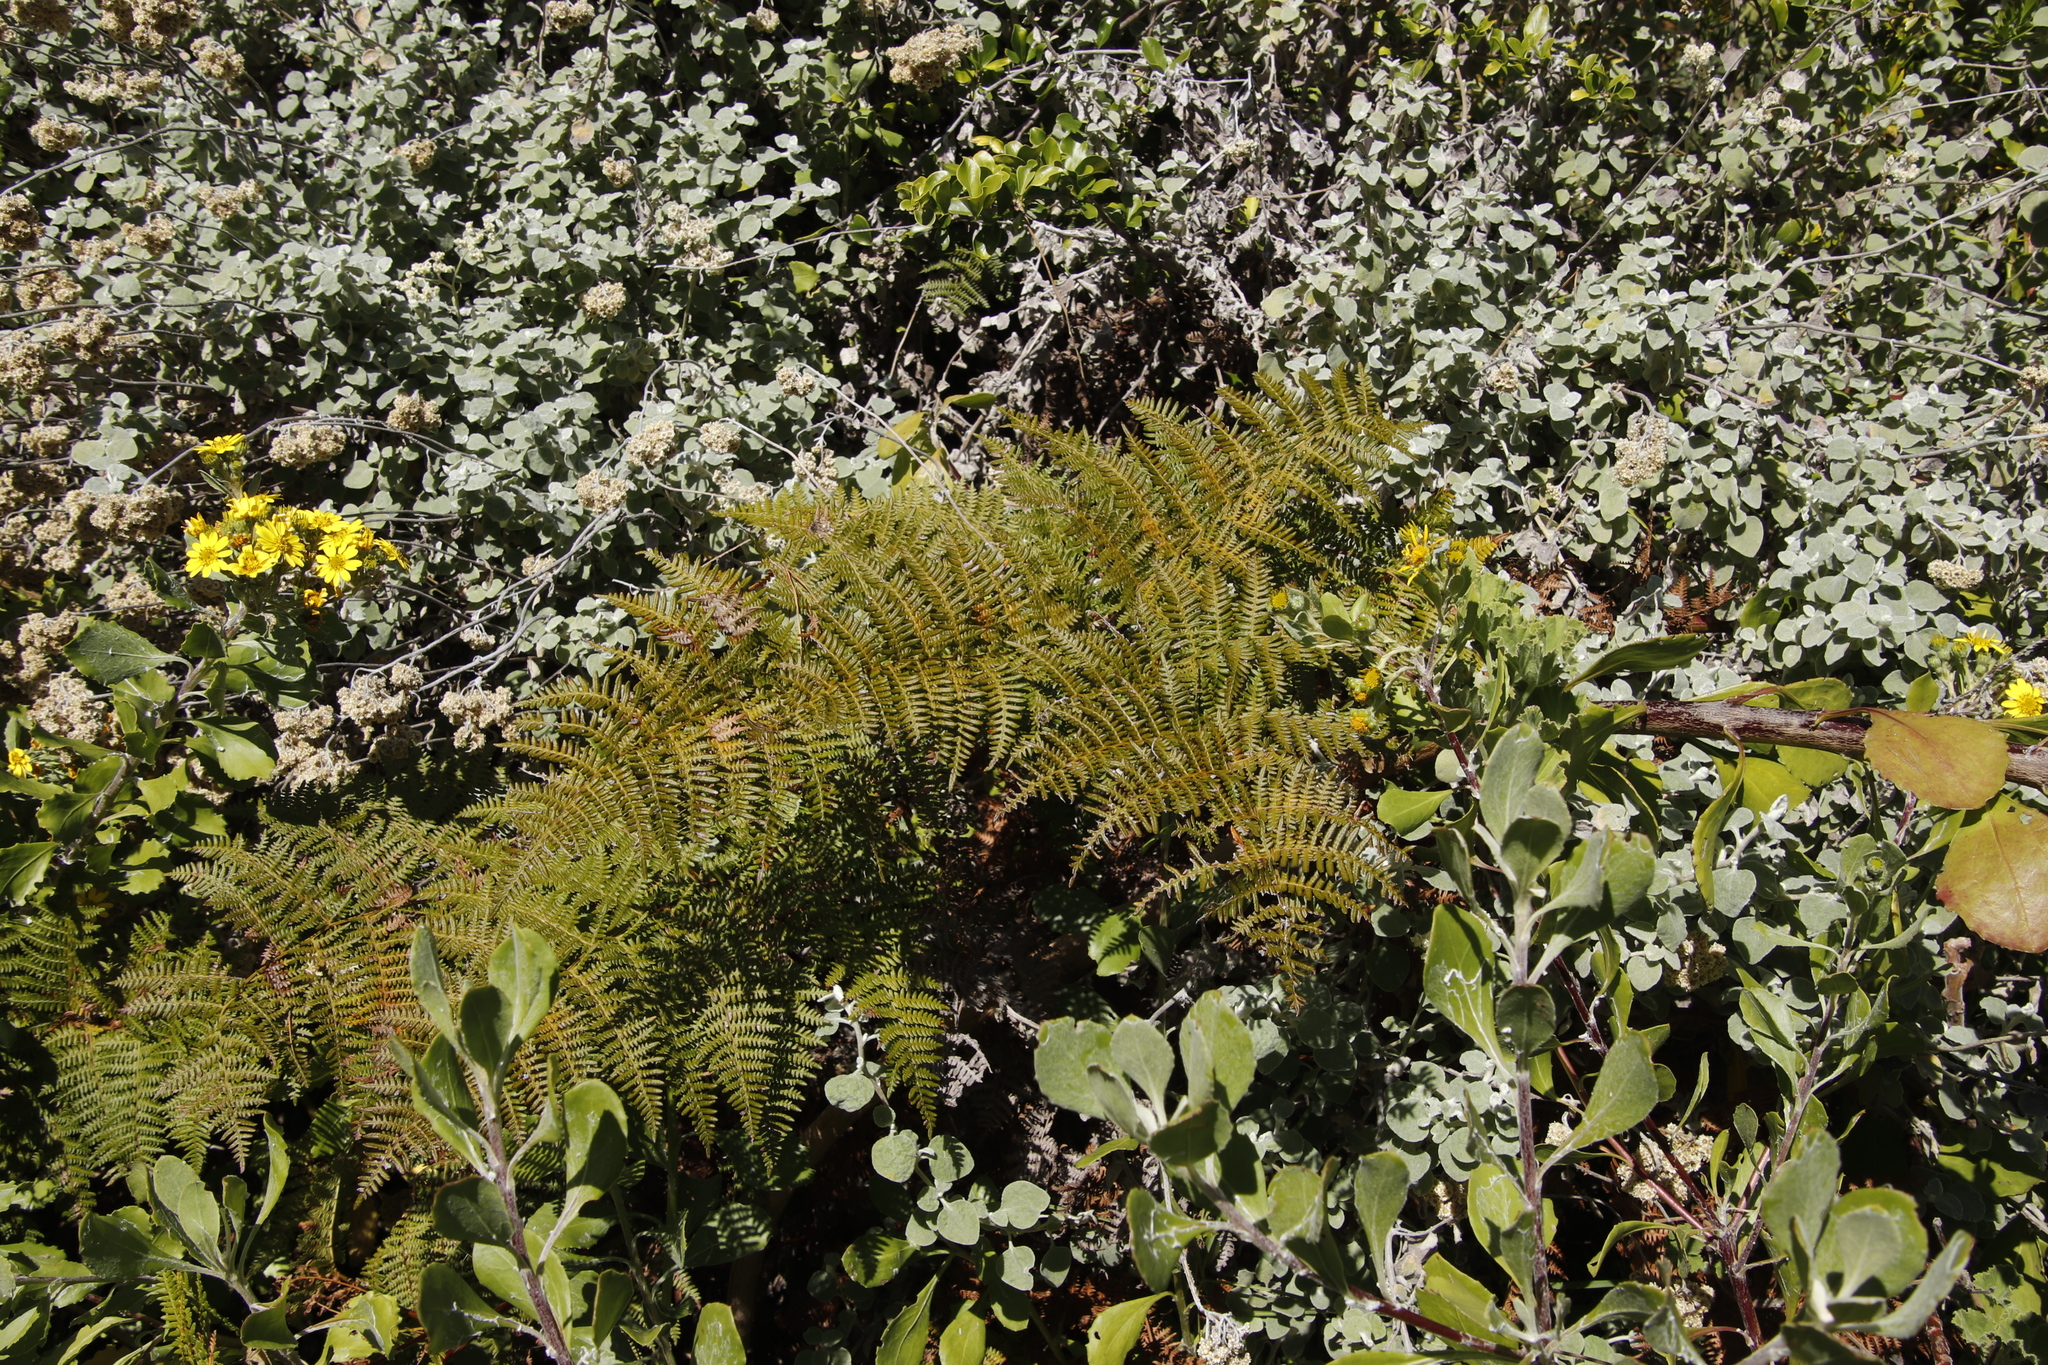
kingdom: Plantae
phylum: Tracheophyta
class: Polypodiopsida
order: Polypodiales
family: Dennstaedtiaceae
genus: Pteridium
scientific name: Pteridium aquilinum
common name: Bracken
